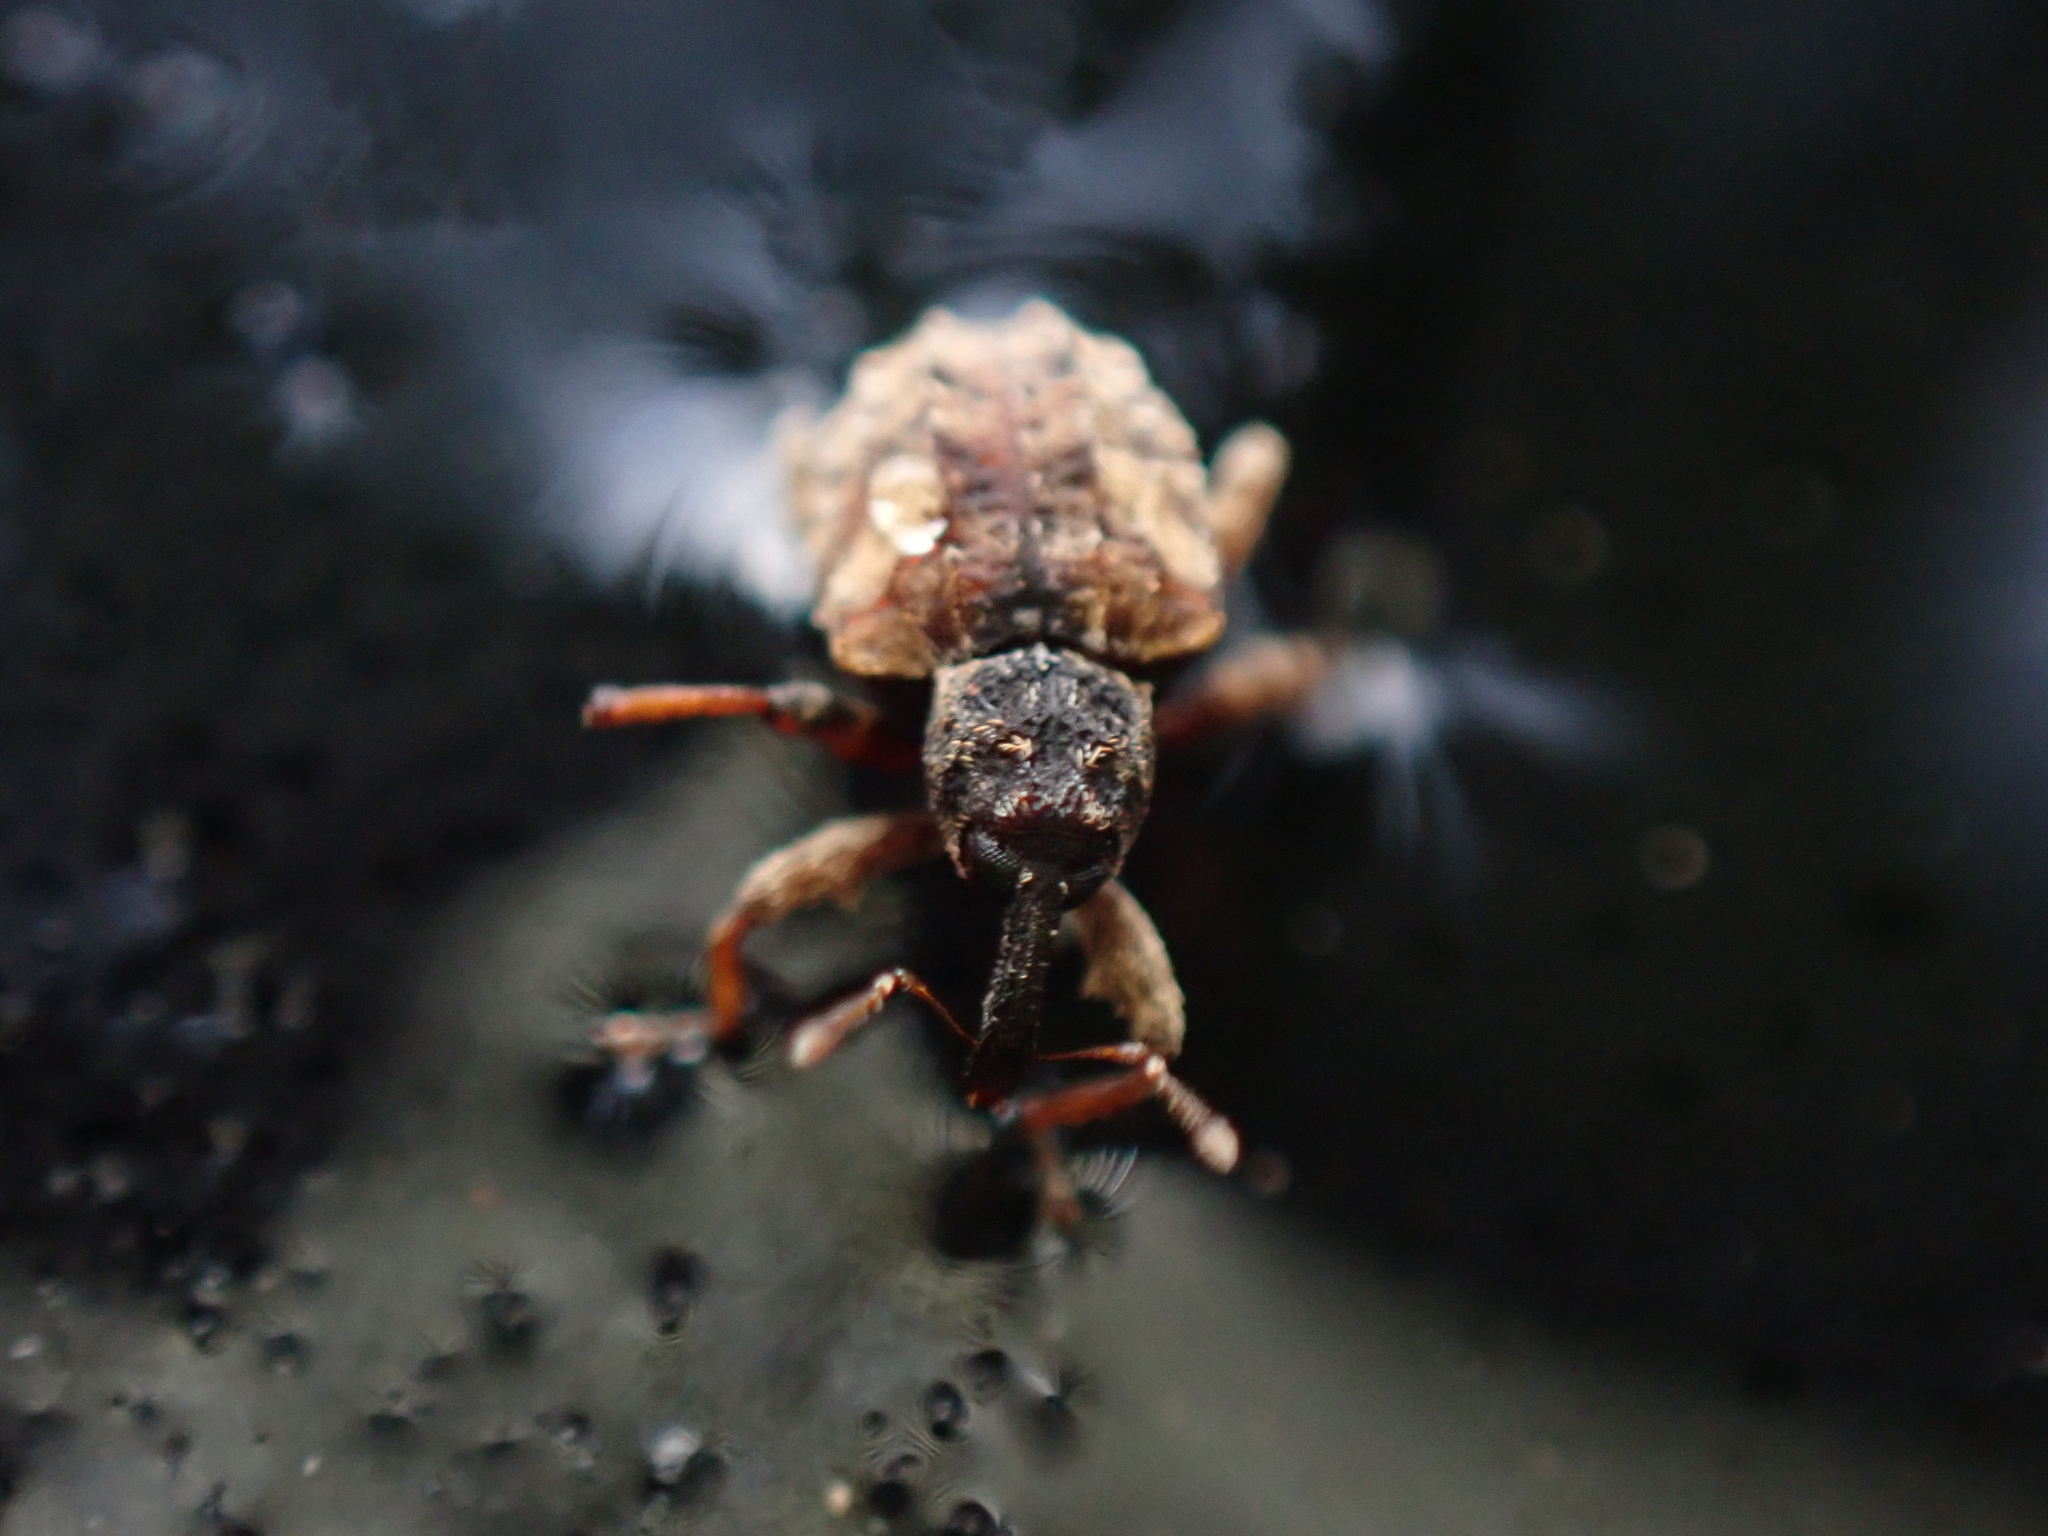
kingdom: Animalia
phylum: Arthropoda
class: Insecta
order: Coleoptera
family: Curculionidae
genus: Conotrachelus
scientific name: Conotrachelus anaglypticus
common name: Cambium curculio
